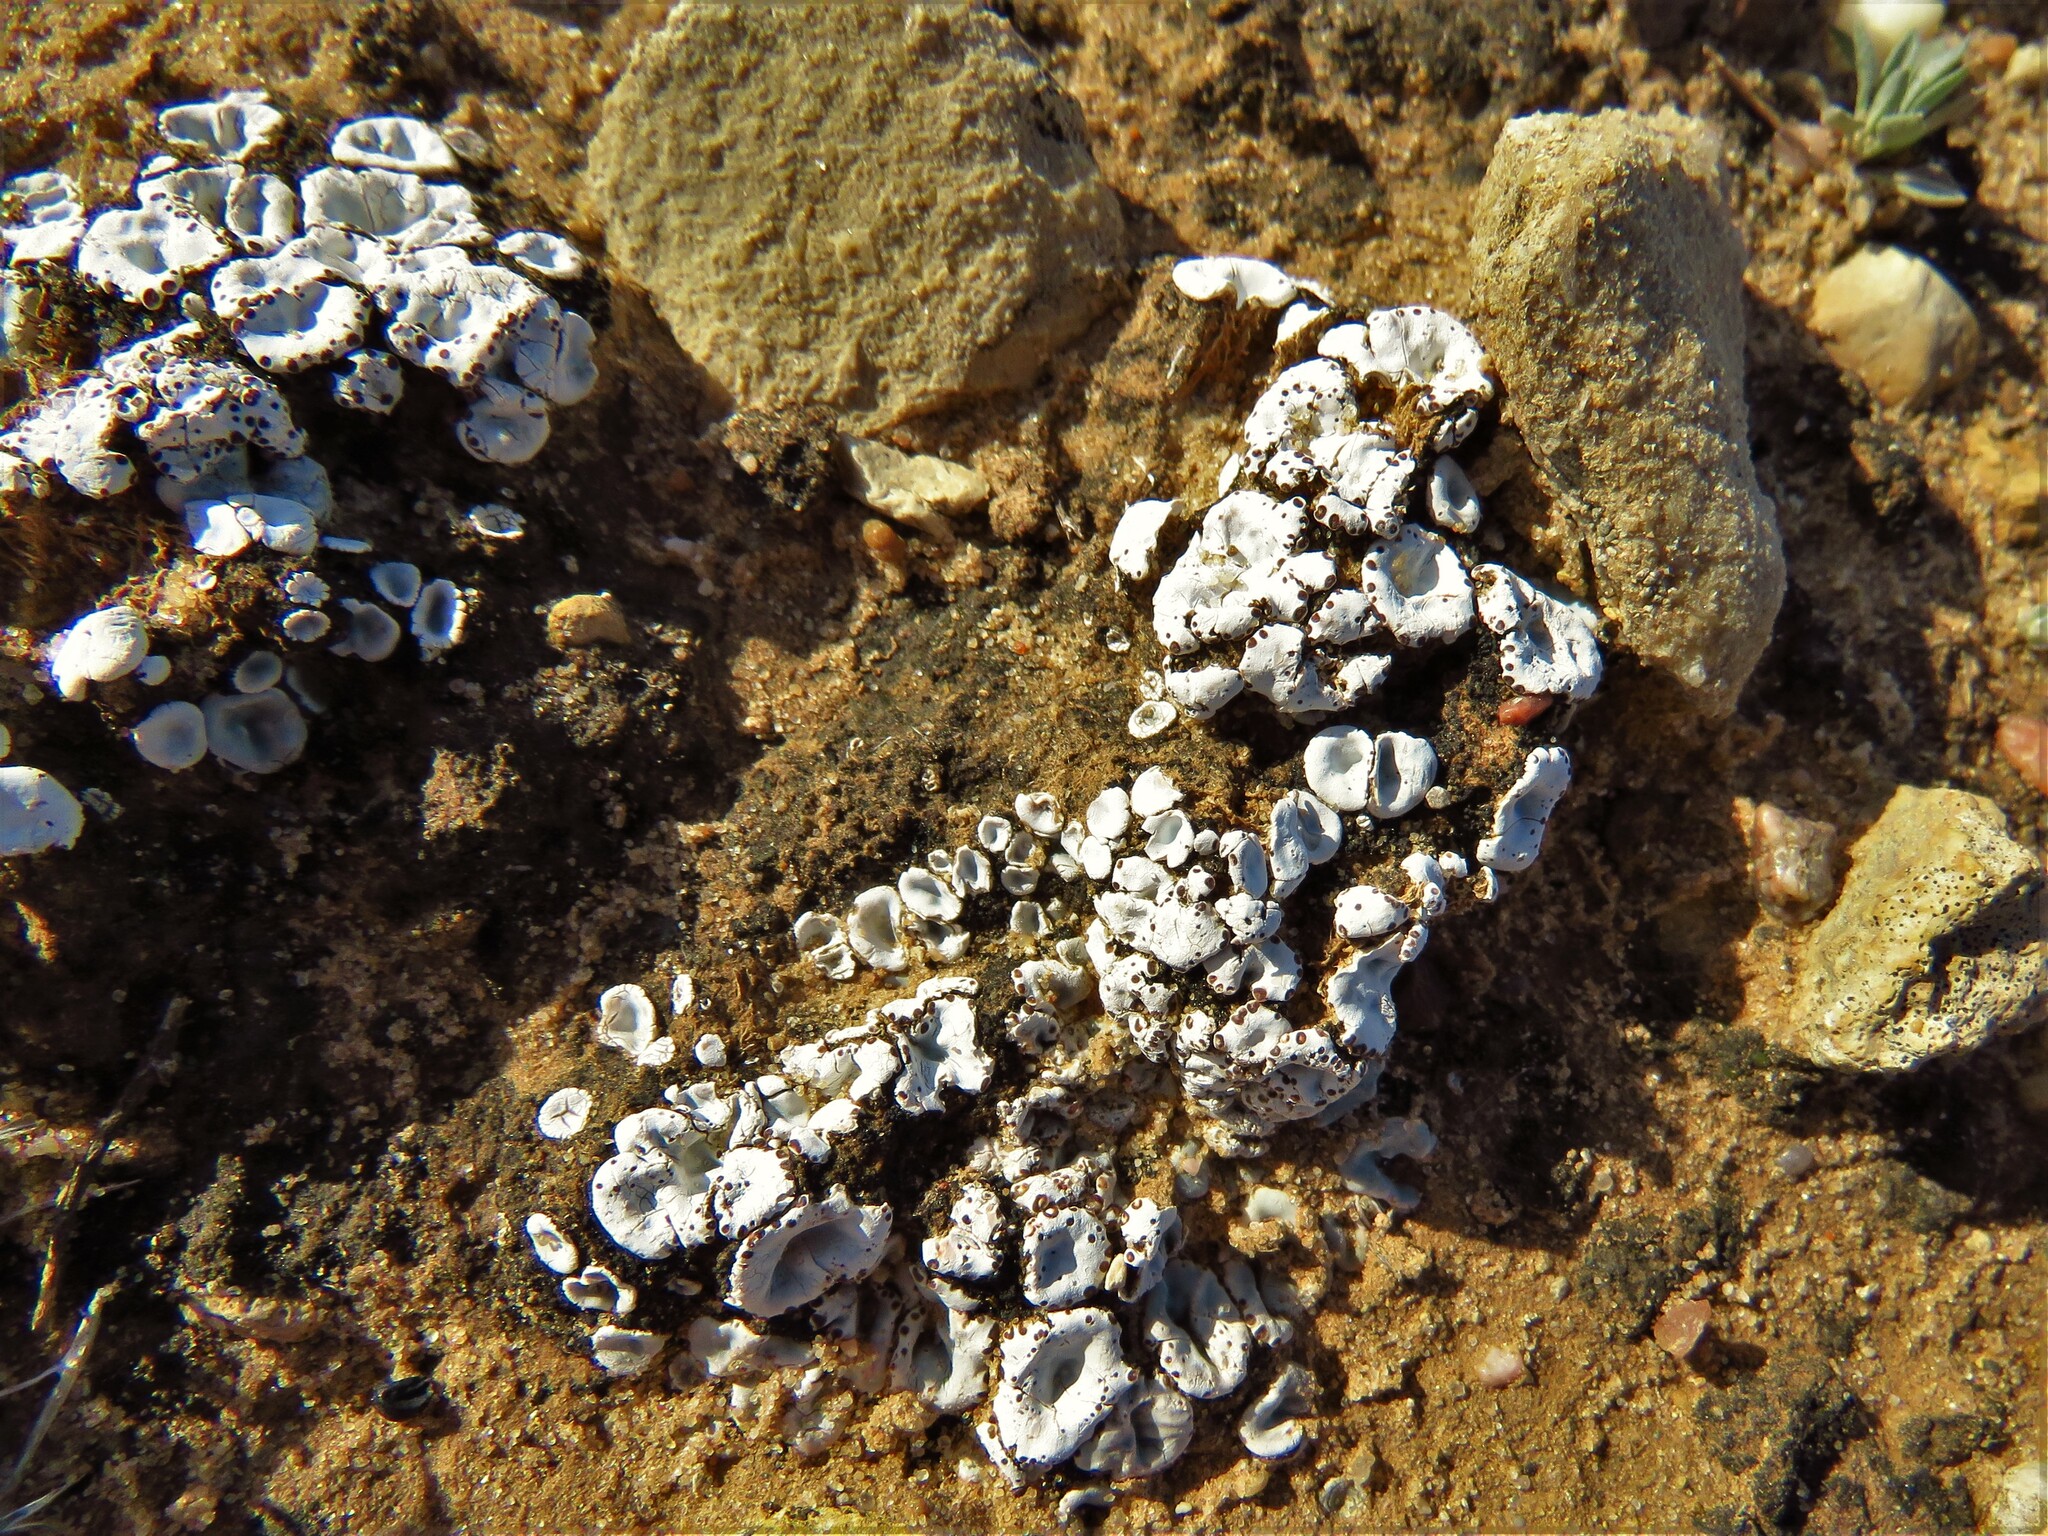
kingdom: Fungi
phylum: Ascomycota
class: Lecanoromycetes
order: Lecanorales
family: Psoraceae
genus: Psora
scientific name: Psora crenata
